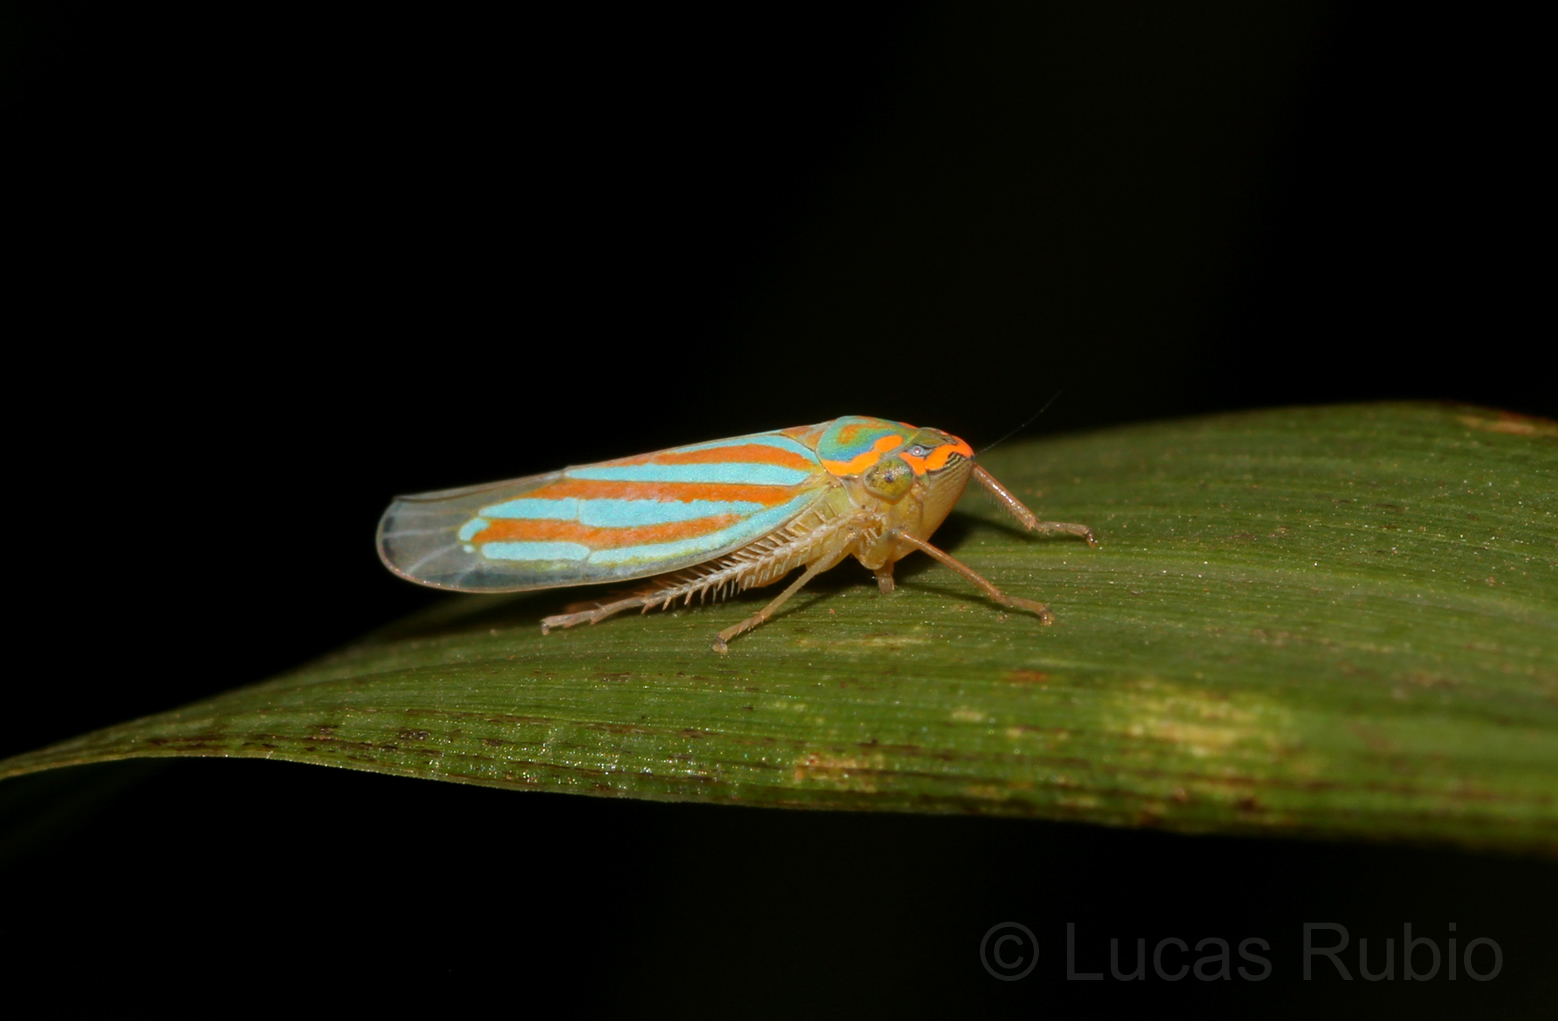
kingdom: Animalia
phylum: Arthropoda
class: Insecta
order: Hemiptera
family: Cicadellidae
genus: Ferrariana
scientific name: Ferrariana trivittata
